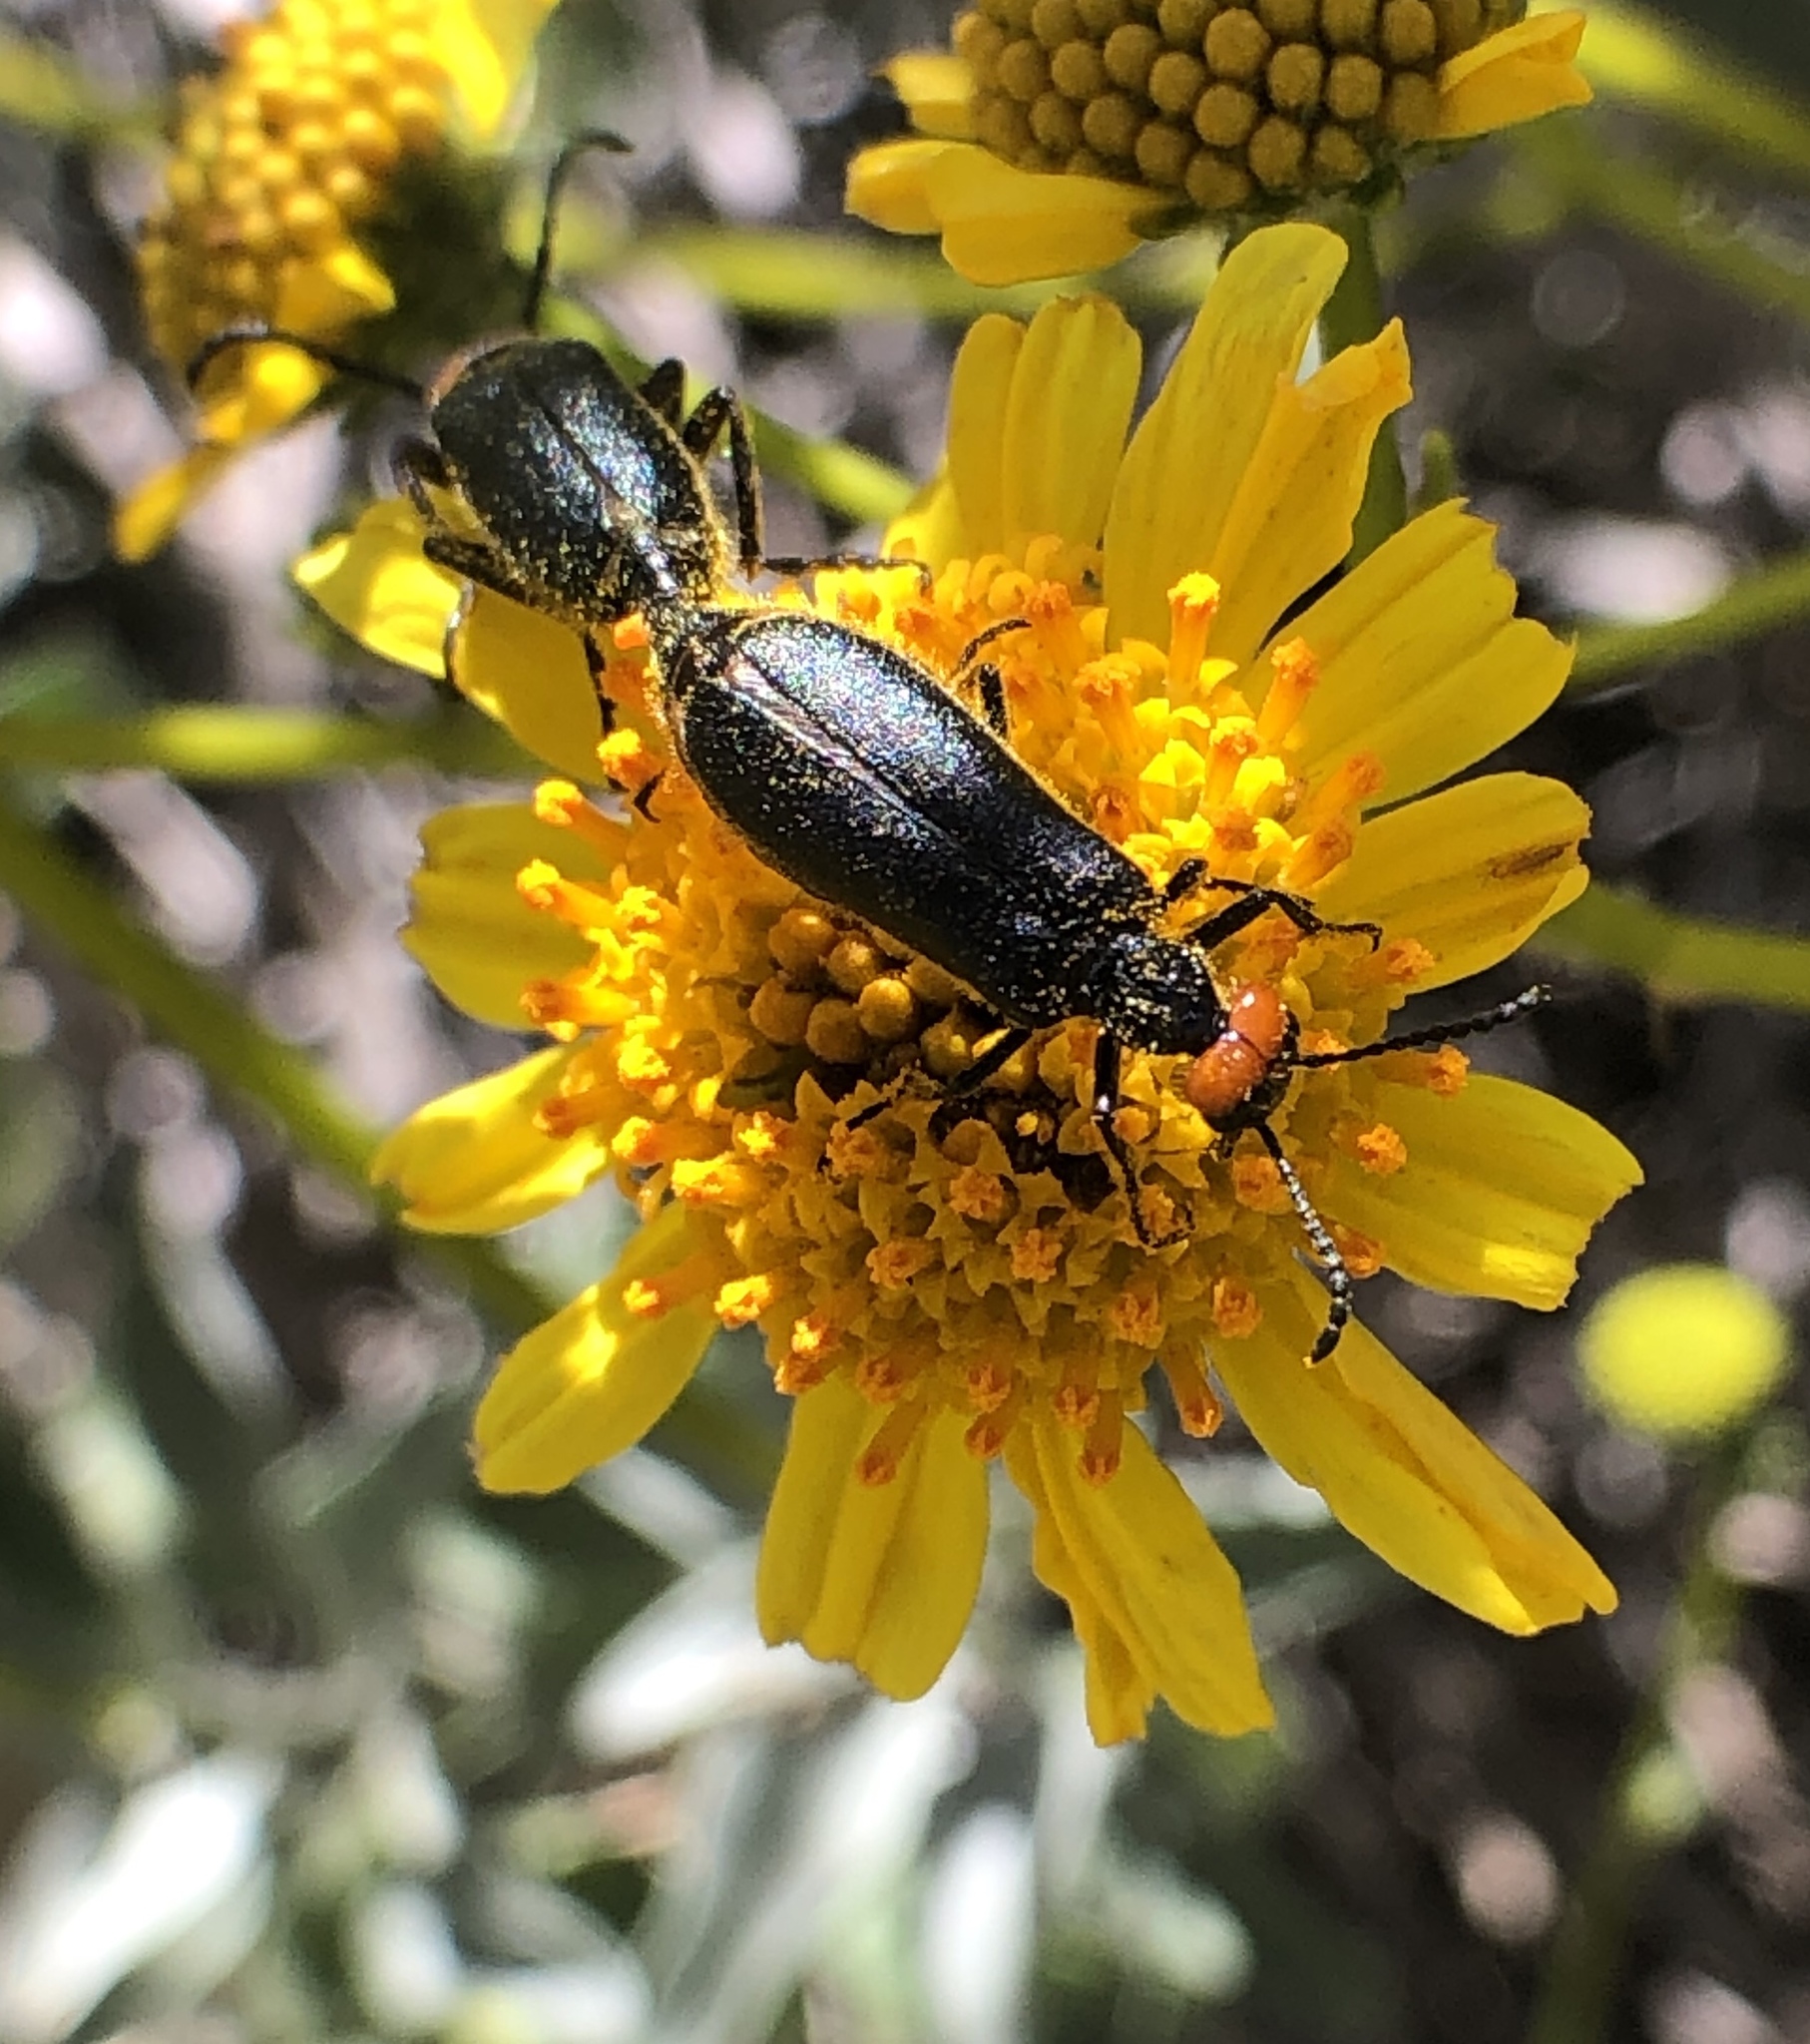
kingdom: Animalia
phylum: Arthropoda
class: Insecta
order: Coleoptera
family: Meloidae
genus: Lytta
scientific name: Lytta auriculata
